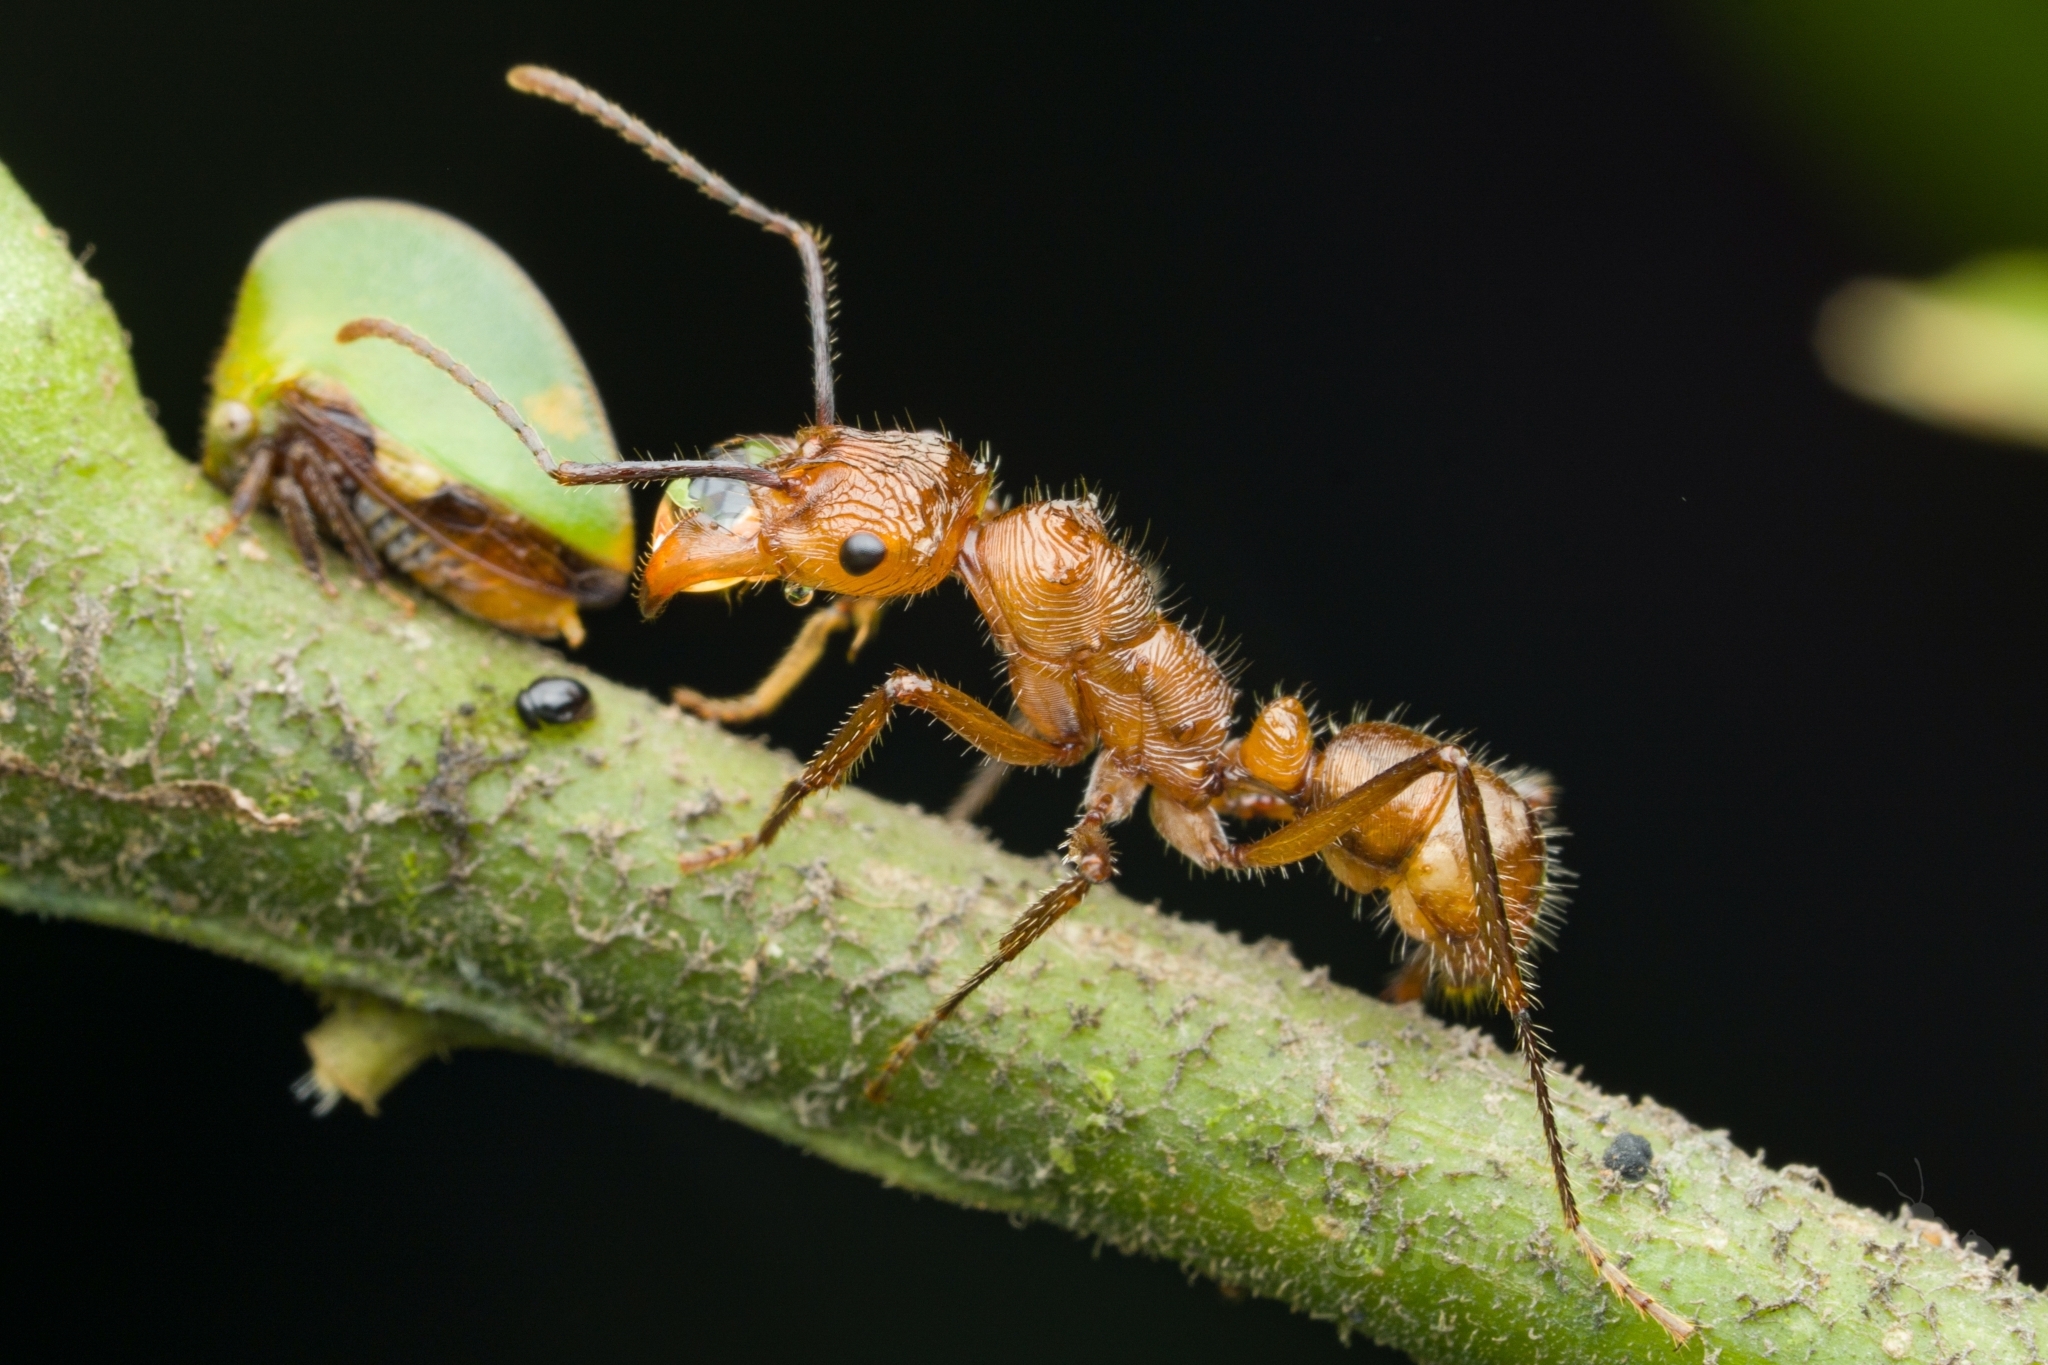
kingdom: Animalia
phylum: Arthropoda
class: Insecta
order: Hymenoptera
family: Formicidae
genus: Ectatomma
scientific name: Ectatomma tuberculatum
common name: Ant
